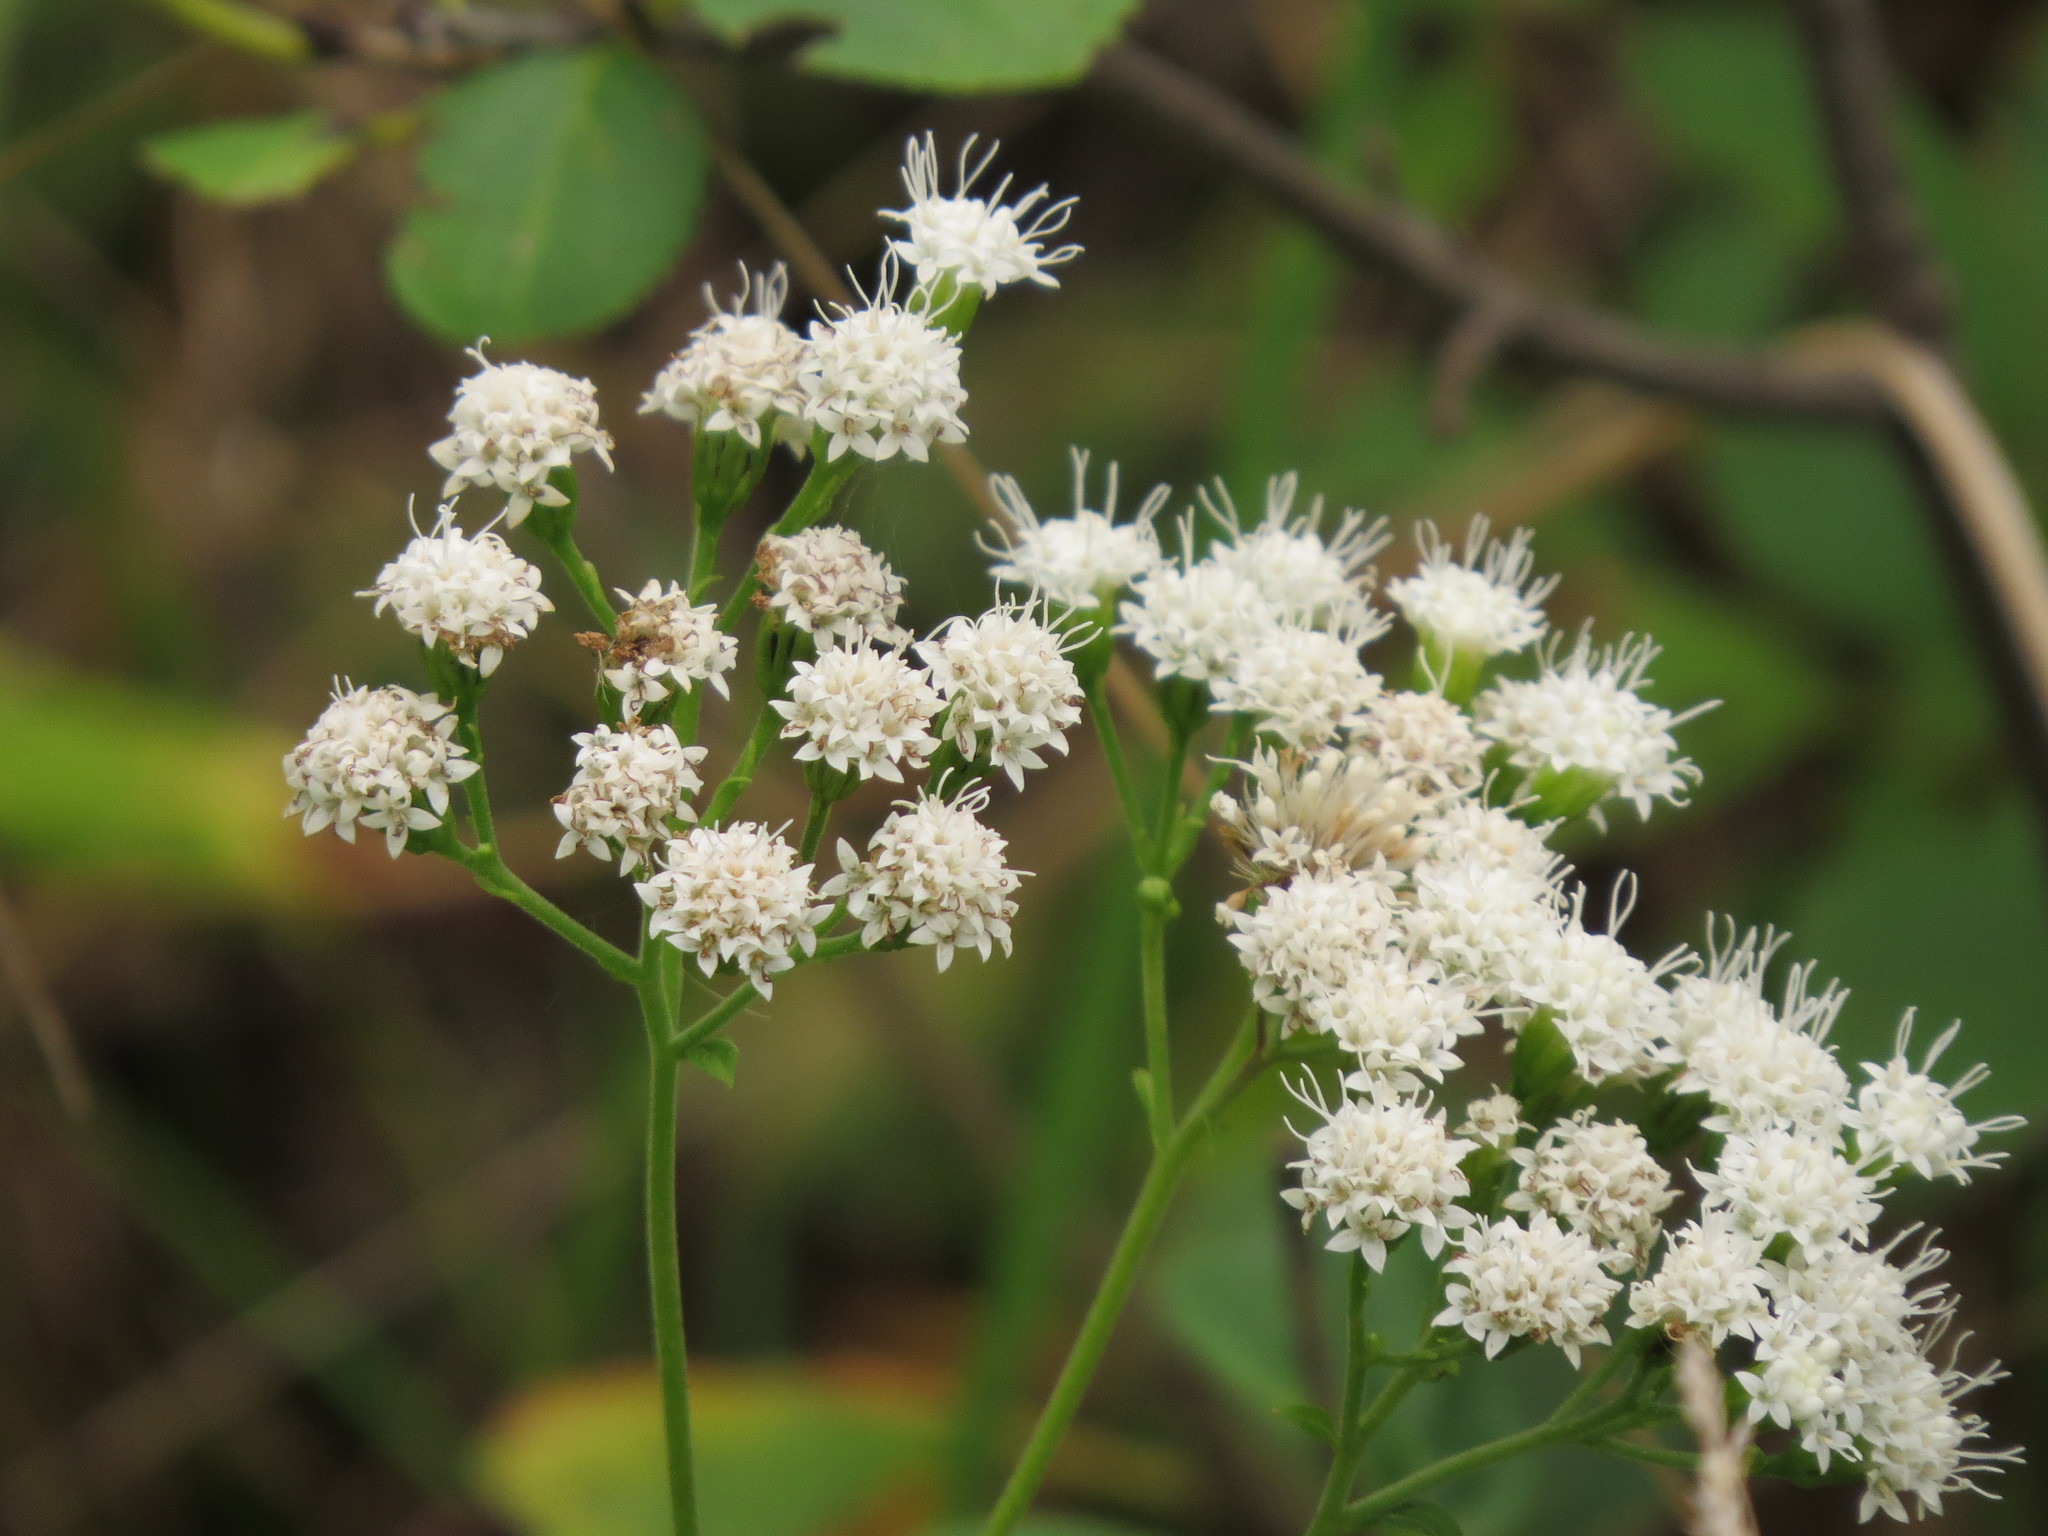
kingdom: Plantae
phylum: Tracheophyta
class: Magnoliopsida
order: Asterales
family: Asteraceae
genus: Ageratina
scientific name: Ageratina altissima
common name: White snakeroot
